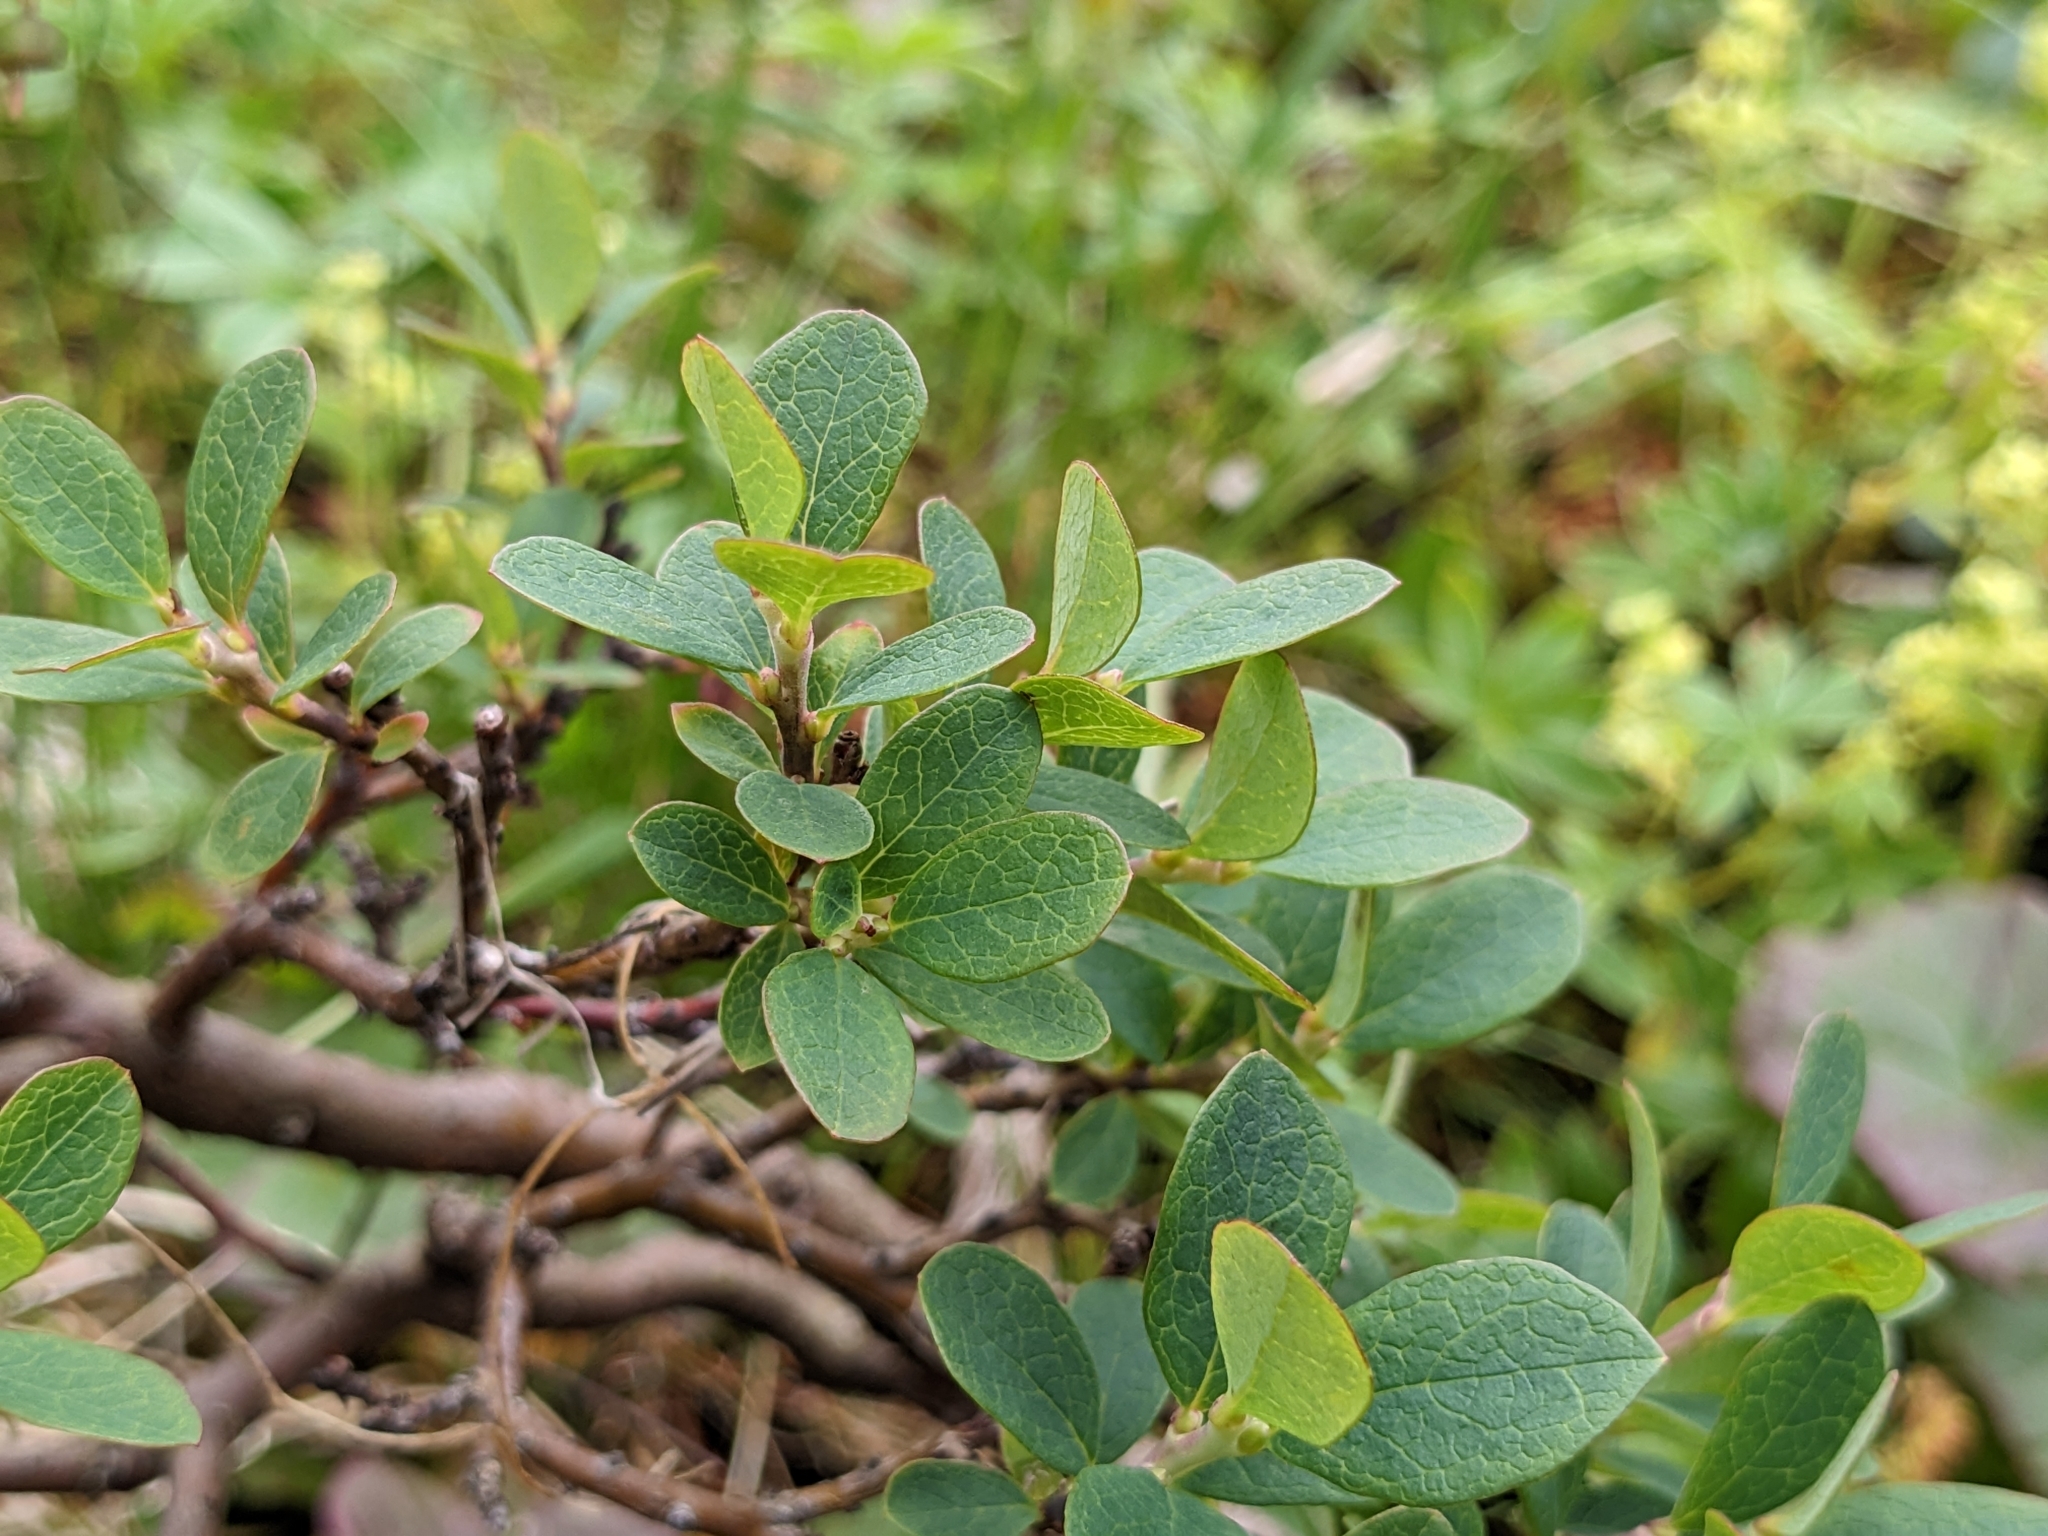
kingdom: Plantae
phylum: Tracheophyta
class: Magnoliopsida
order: Ericales
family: Ericaceae
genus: Vaccinium
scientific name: Vaccinium uliginosum
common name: Bog bilberry
